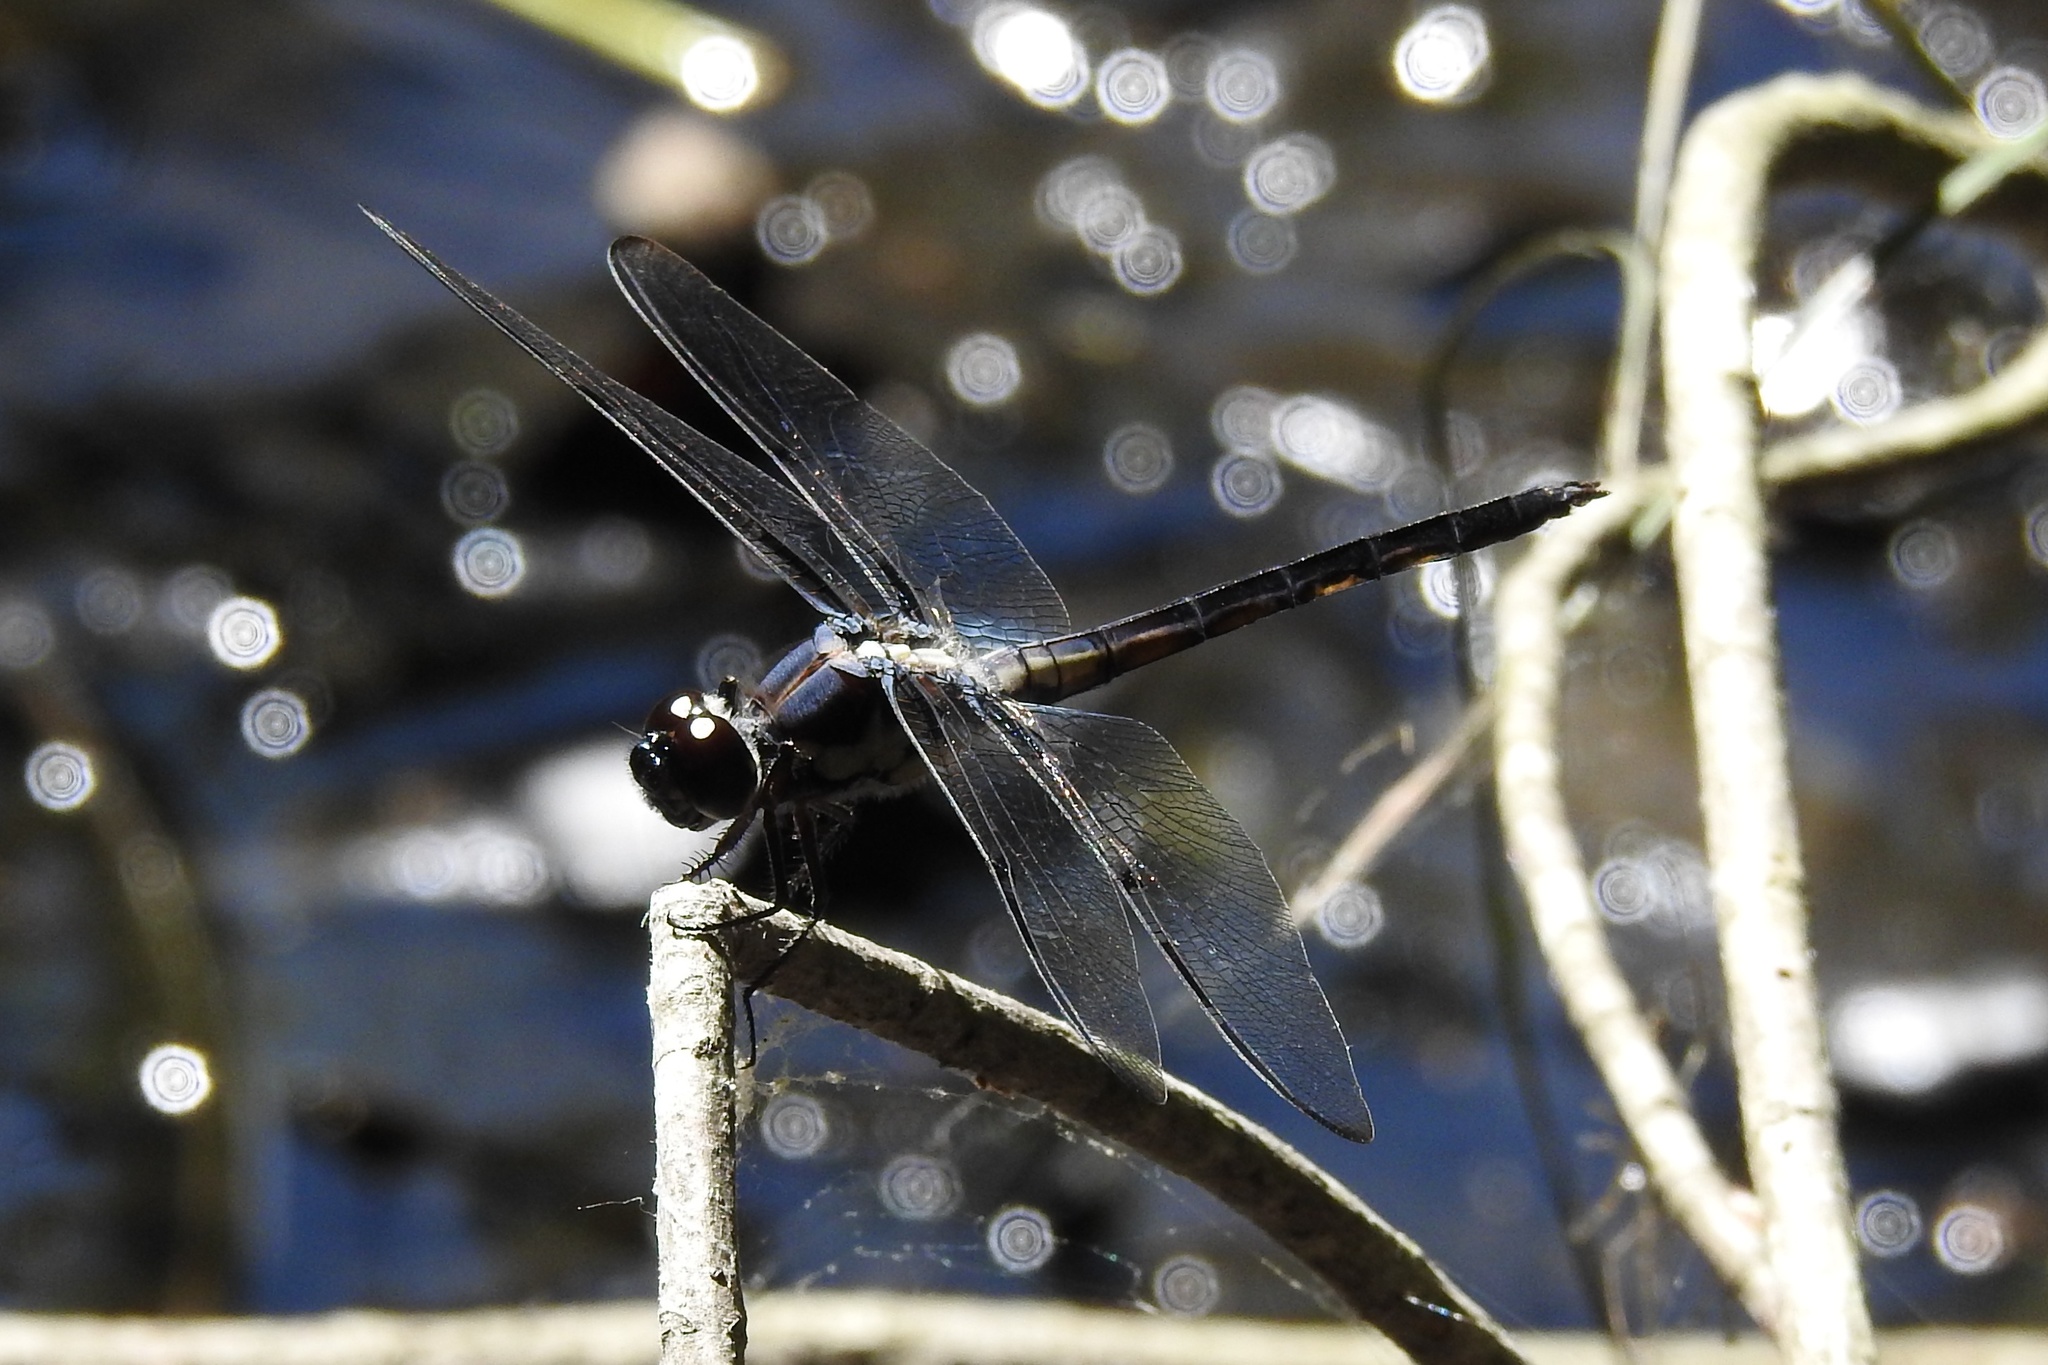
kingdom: Animalia
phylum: Arthropoda
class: Insecta
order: Odonata
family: Libellulidae
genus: Libellula
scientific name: Libellula axilena
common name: Bar-winged skimmer
